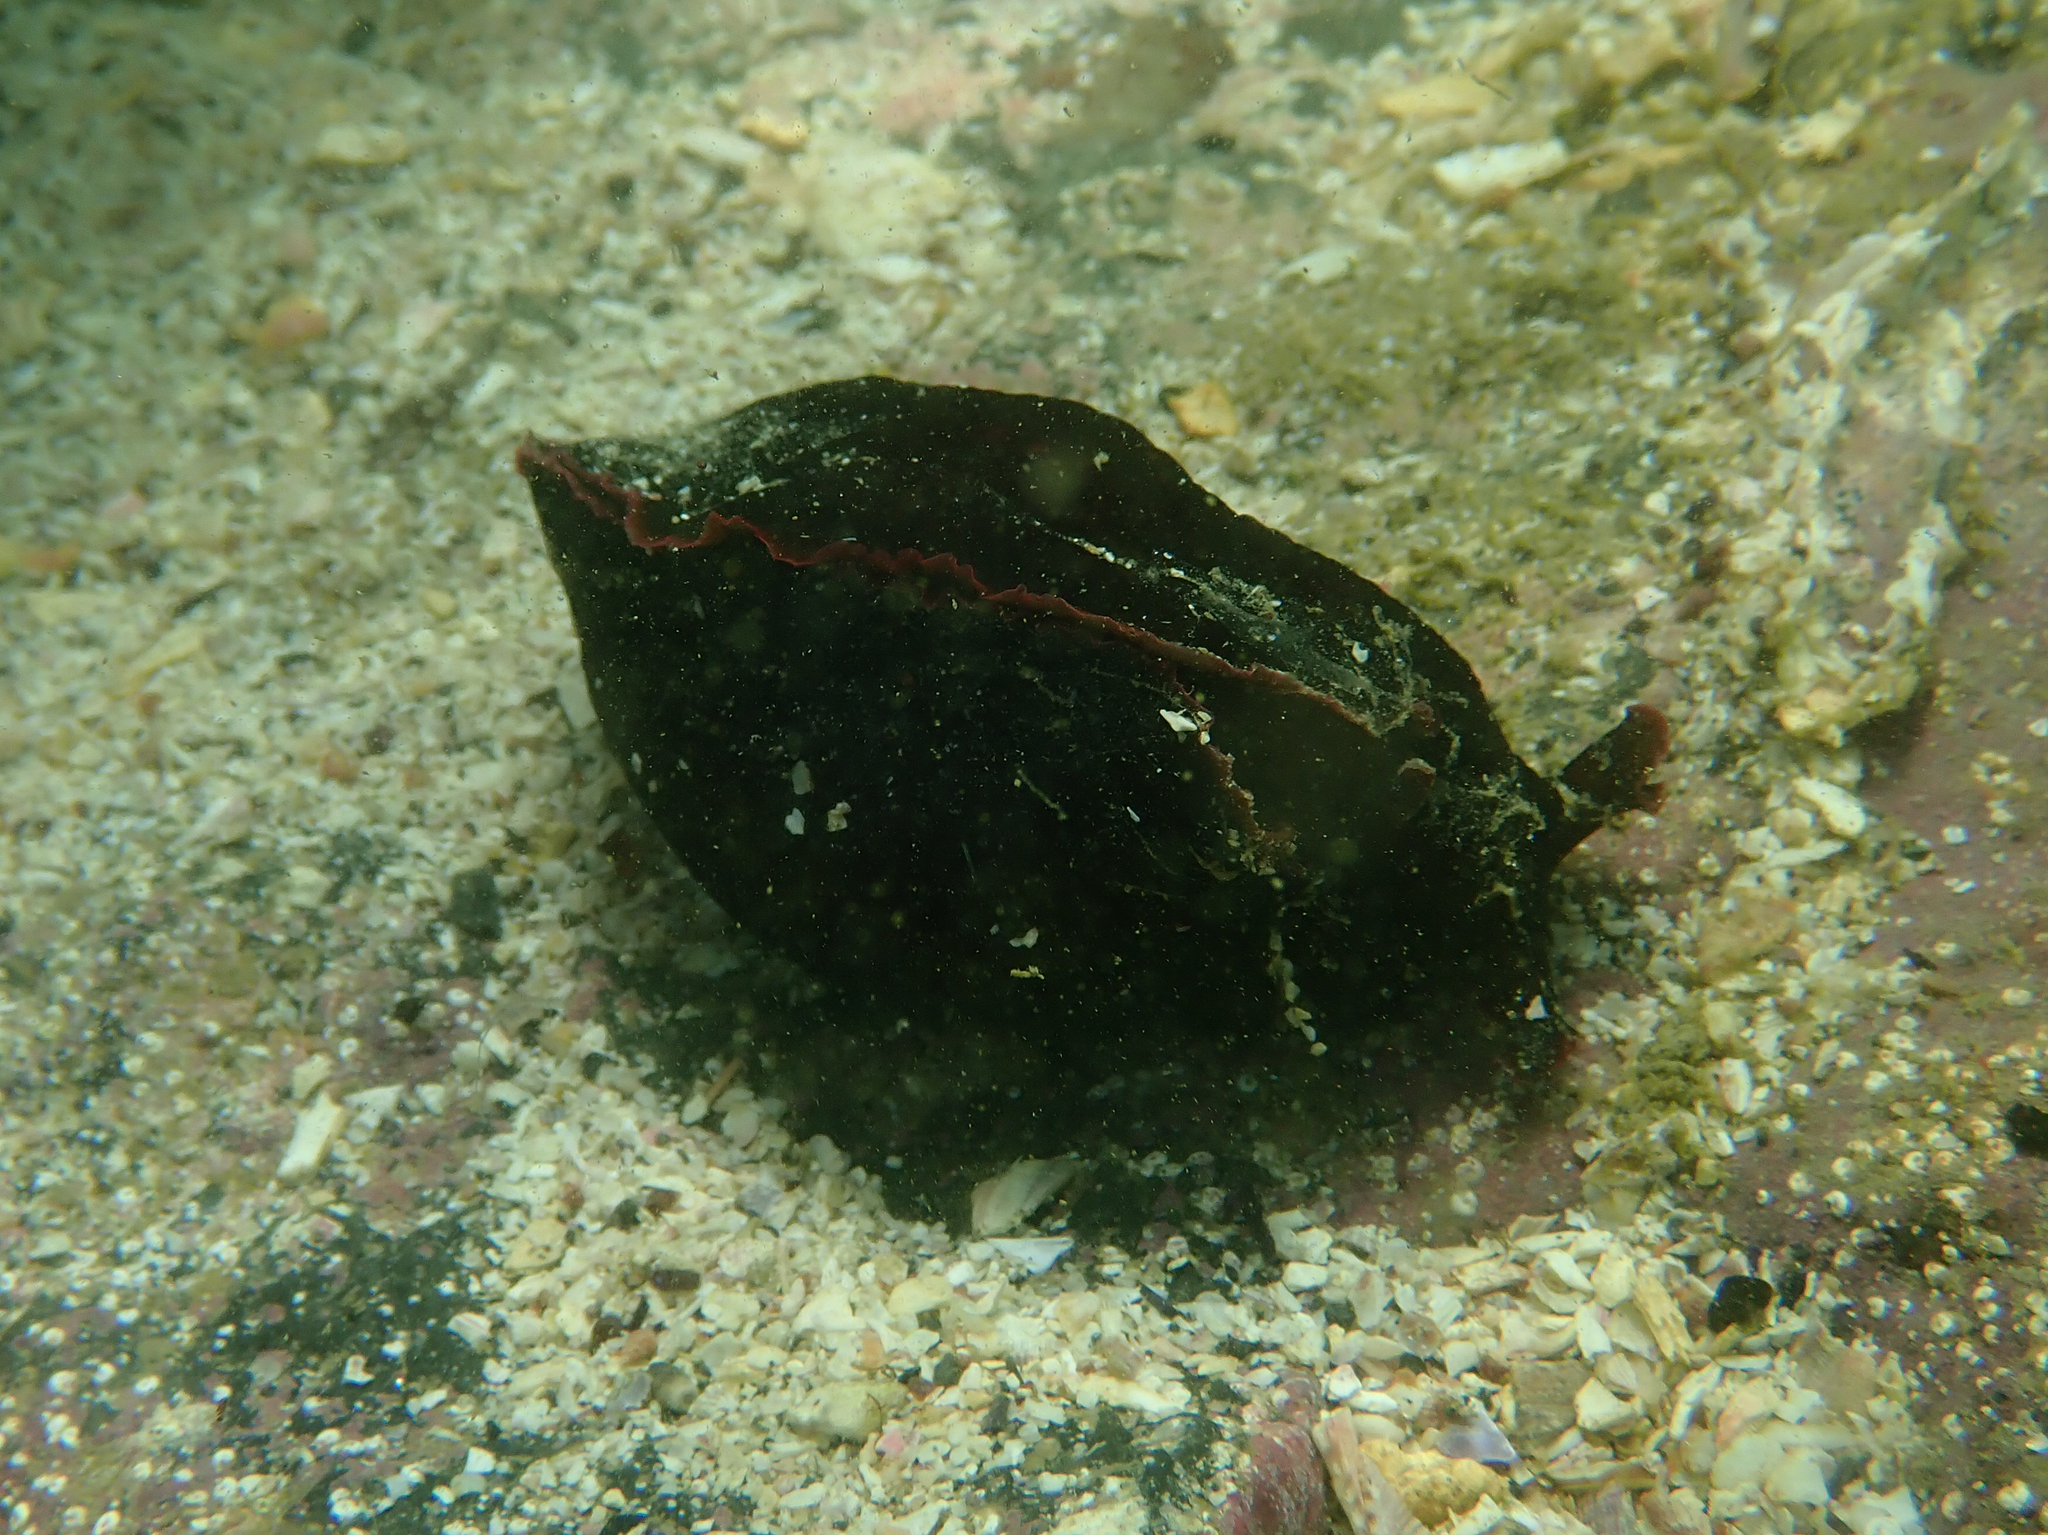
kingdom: Animalia
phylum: Mollusca
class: Gastropoda
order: Aplysiida
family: Aplysiidae
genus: Aplysia
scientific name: Aplysia fasciata
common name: Banded sea hare
